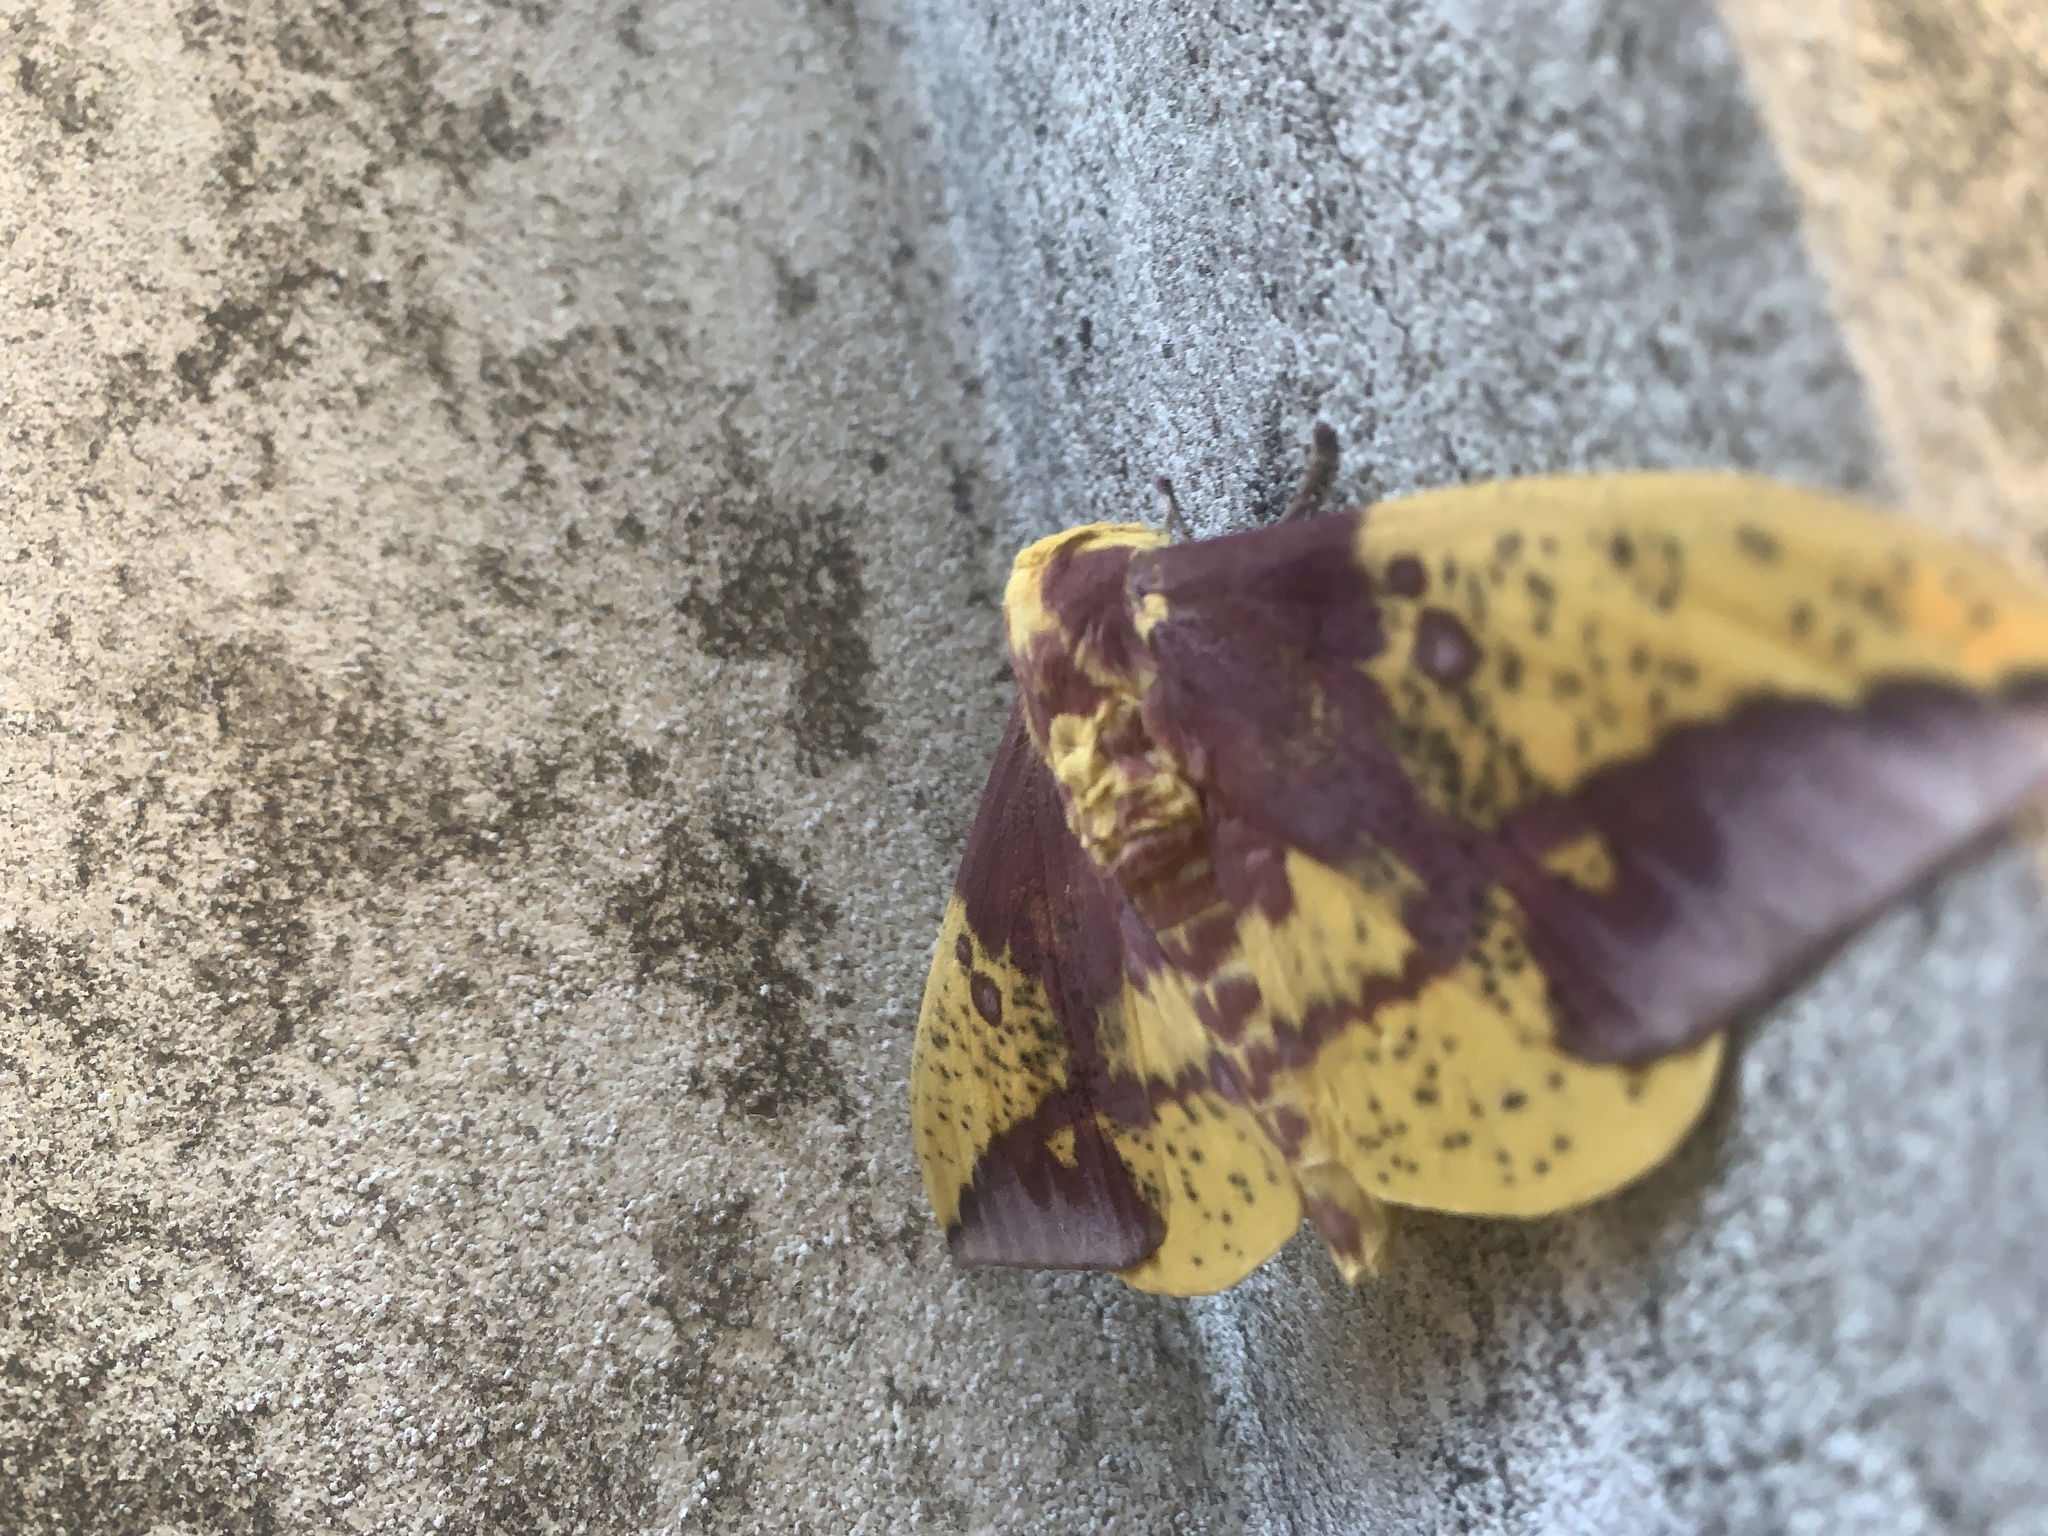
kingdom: Animalia
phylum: Arthropoda
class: Insecta
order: Lepidoptera
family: Saturniidae
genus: Eacles
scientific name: Eacles imperialis
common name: Imperial moth
